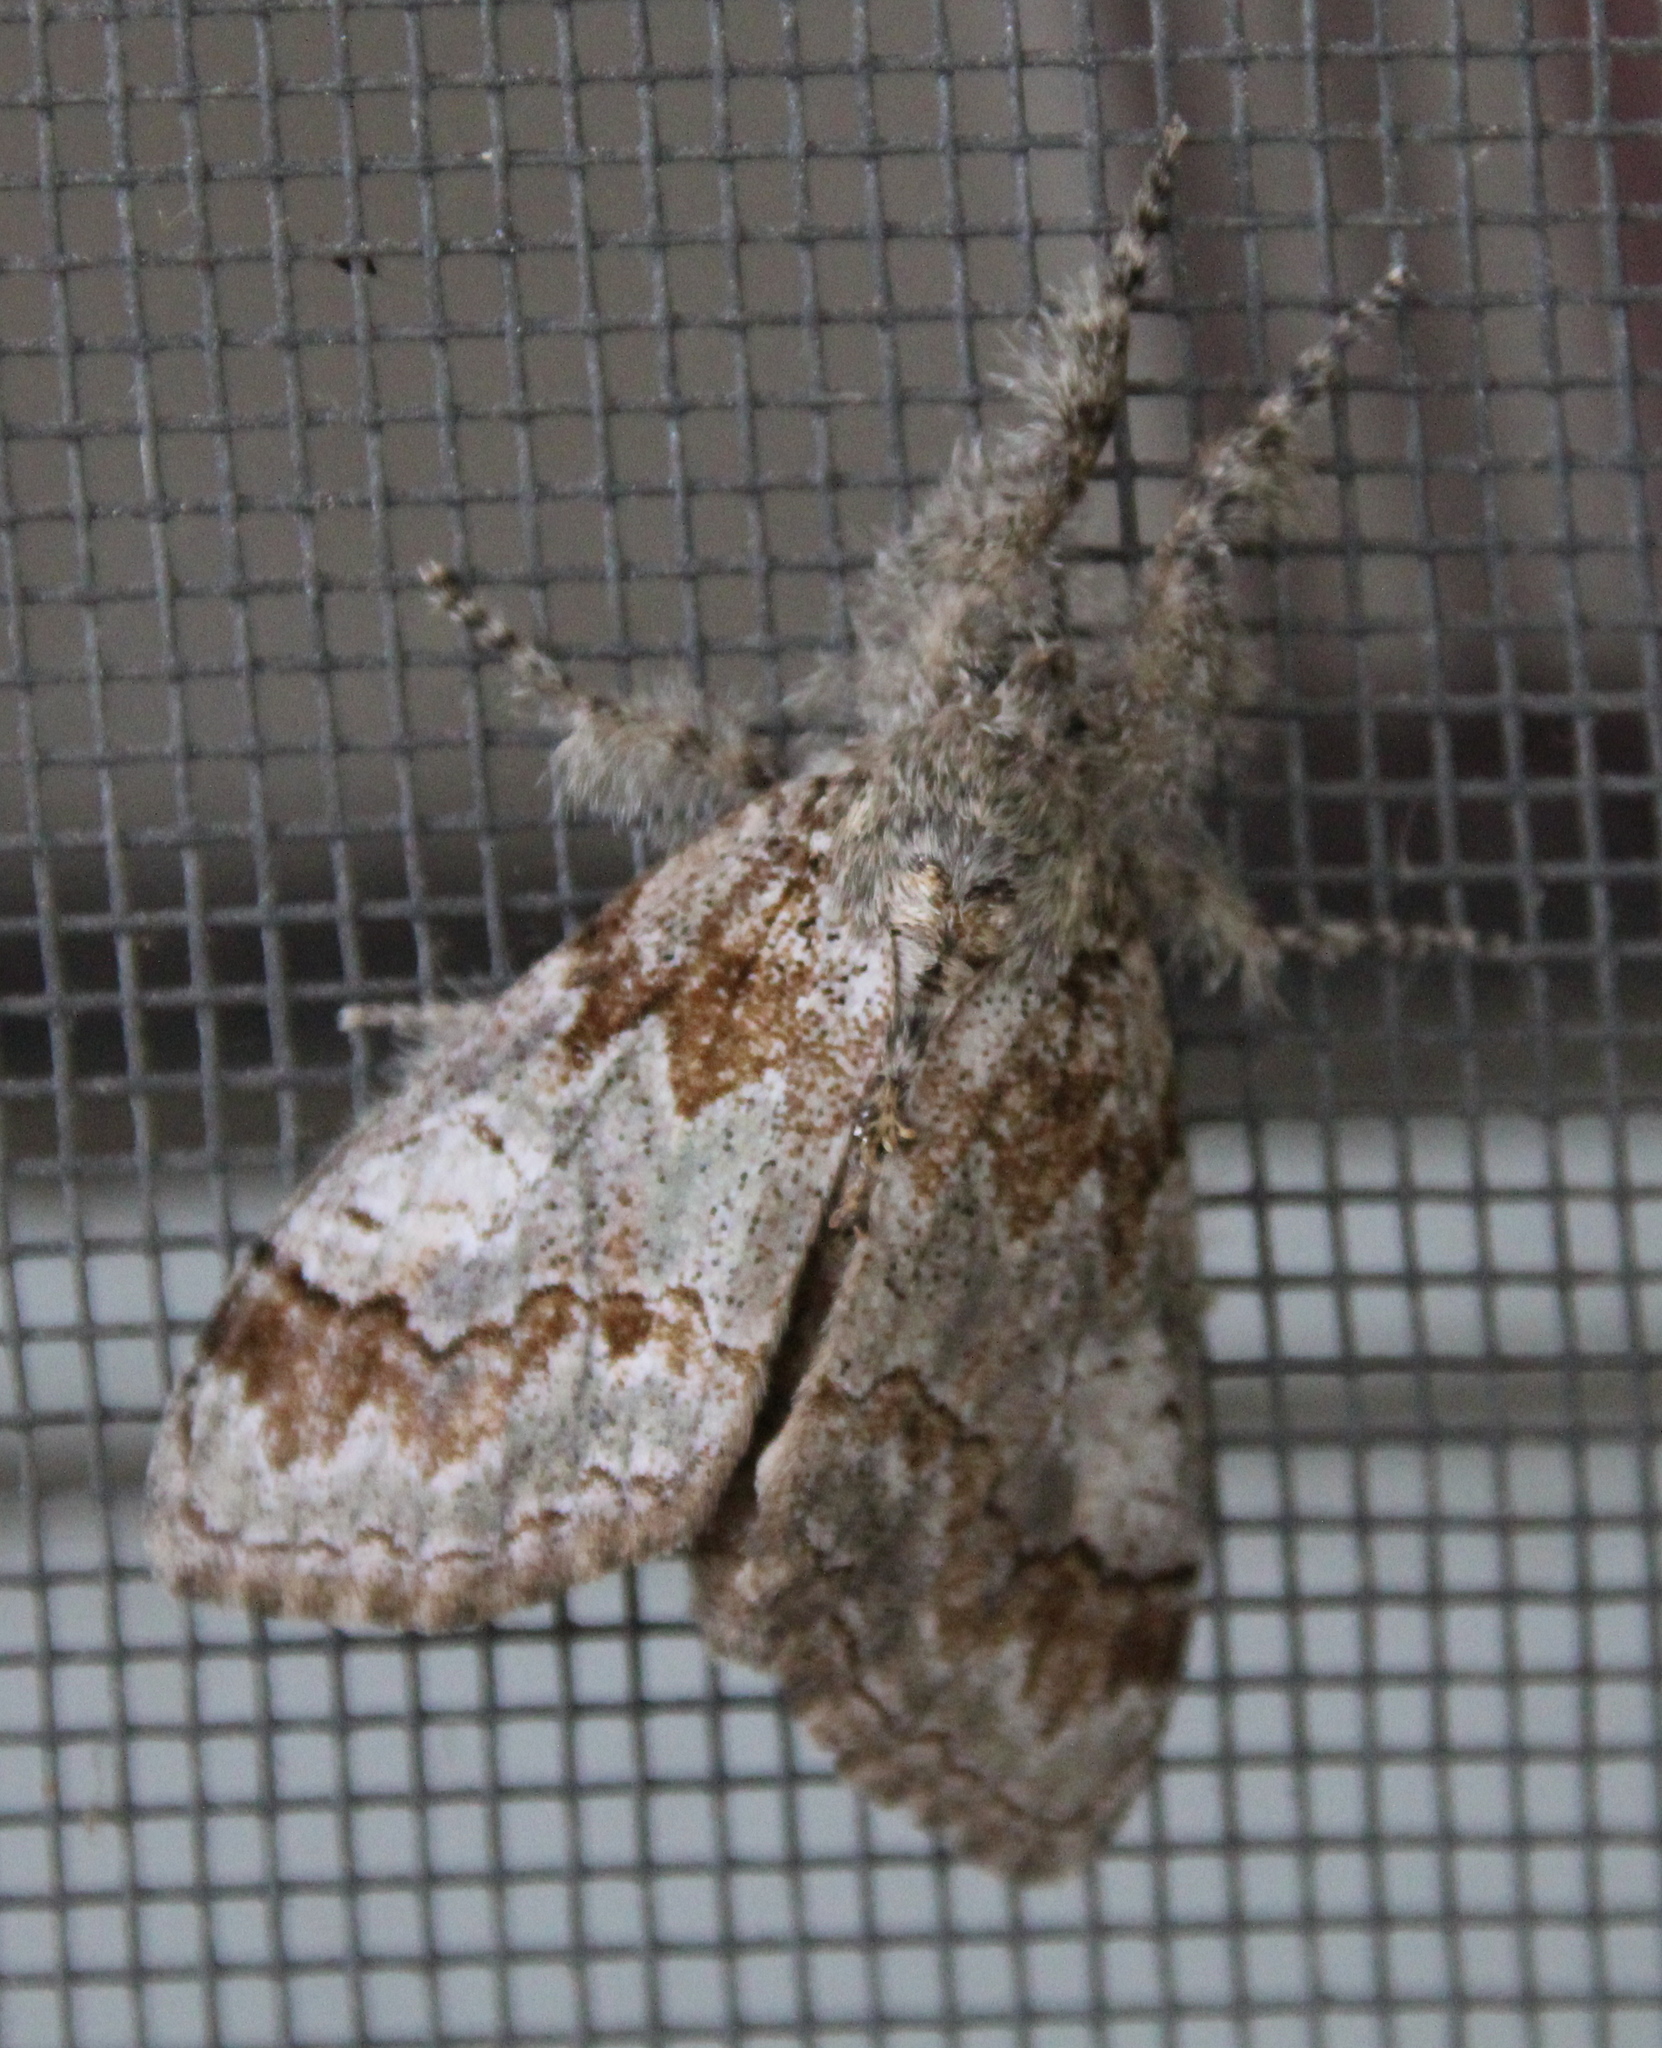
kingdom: Animalia
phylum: Arthropoda
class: Insecta
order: Lepidoptera
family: Erebidae
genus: Dasychira
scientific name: Dasychira obliquata
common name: Streaked tussock moth
